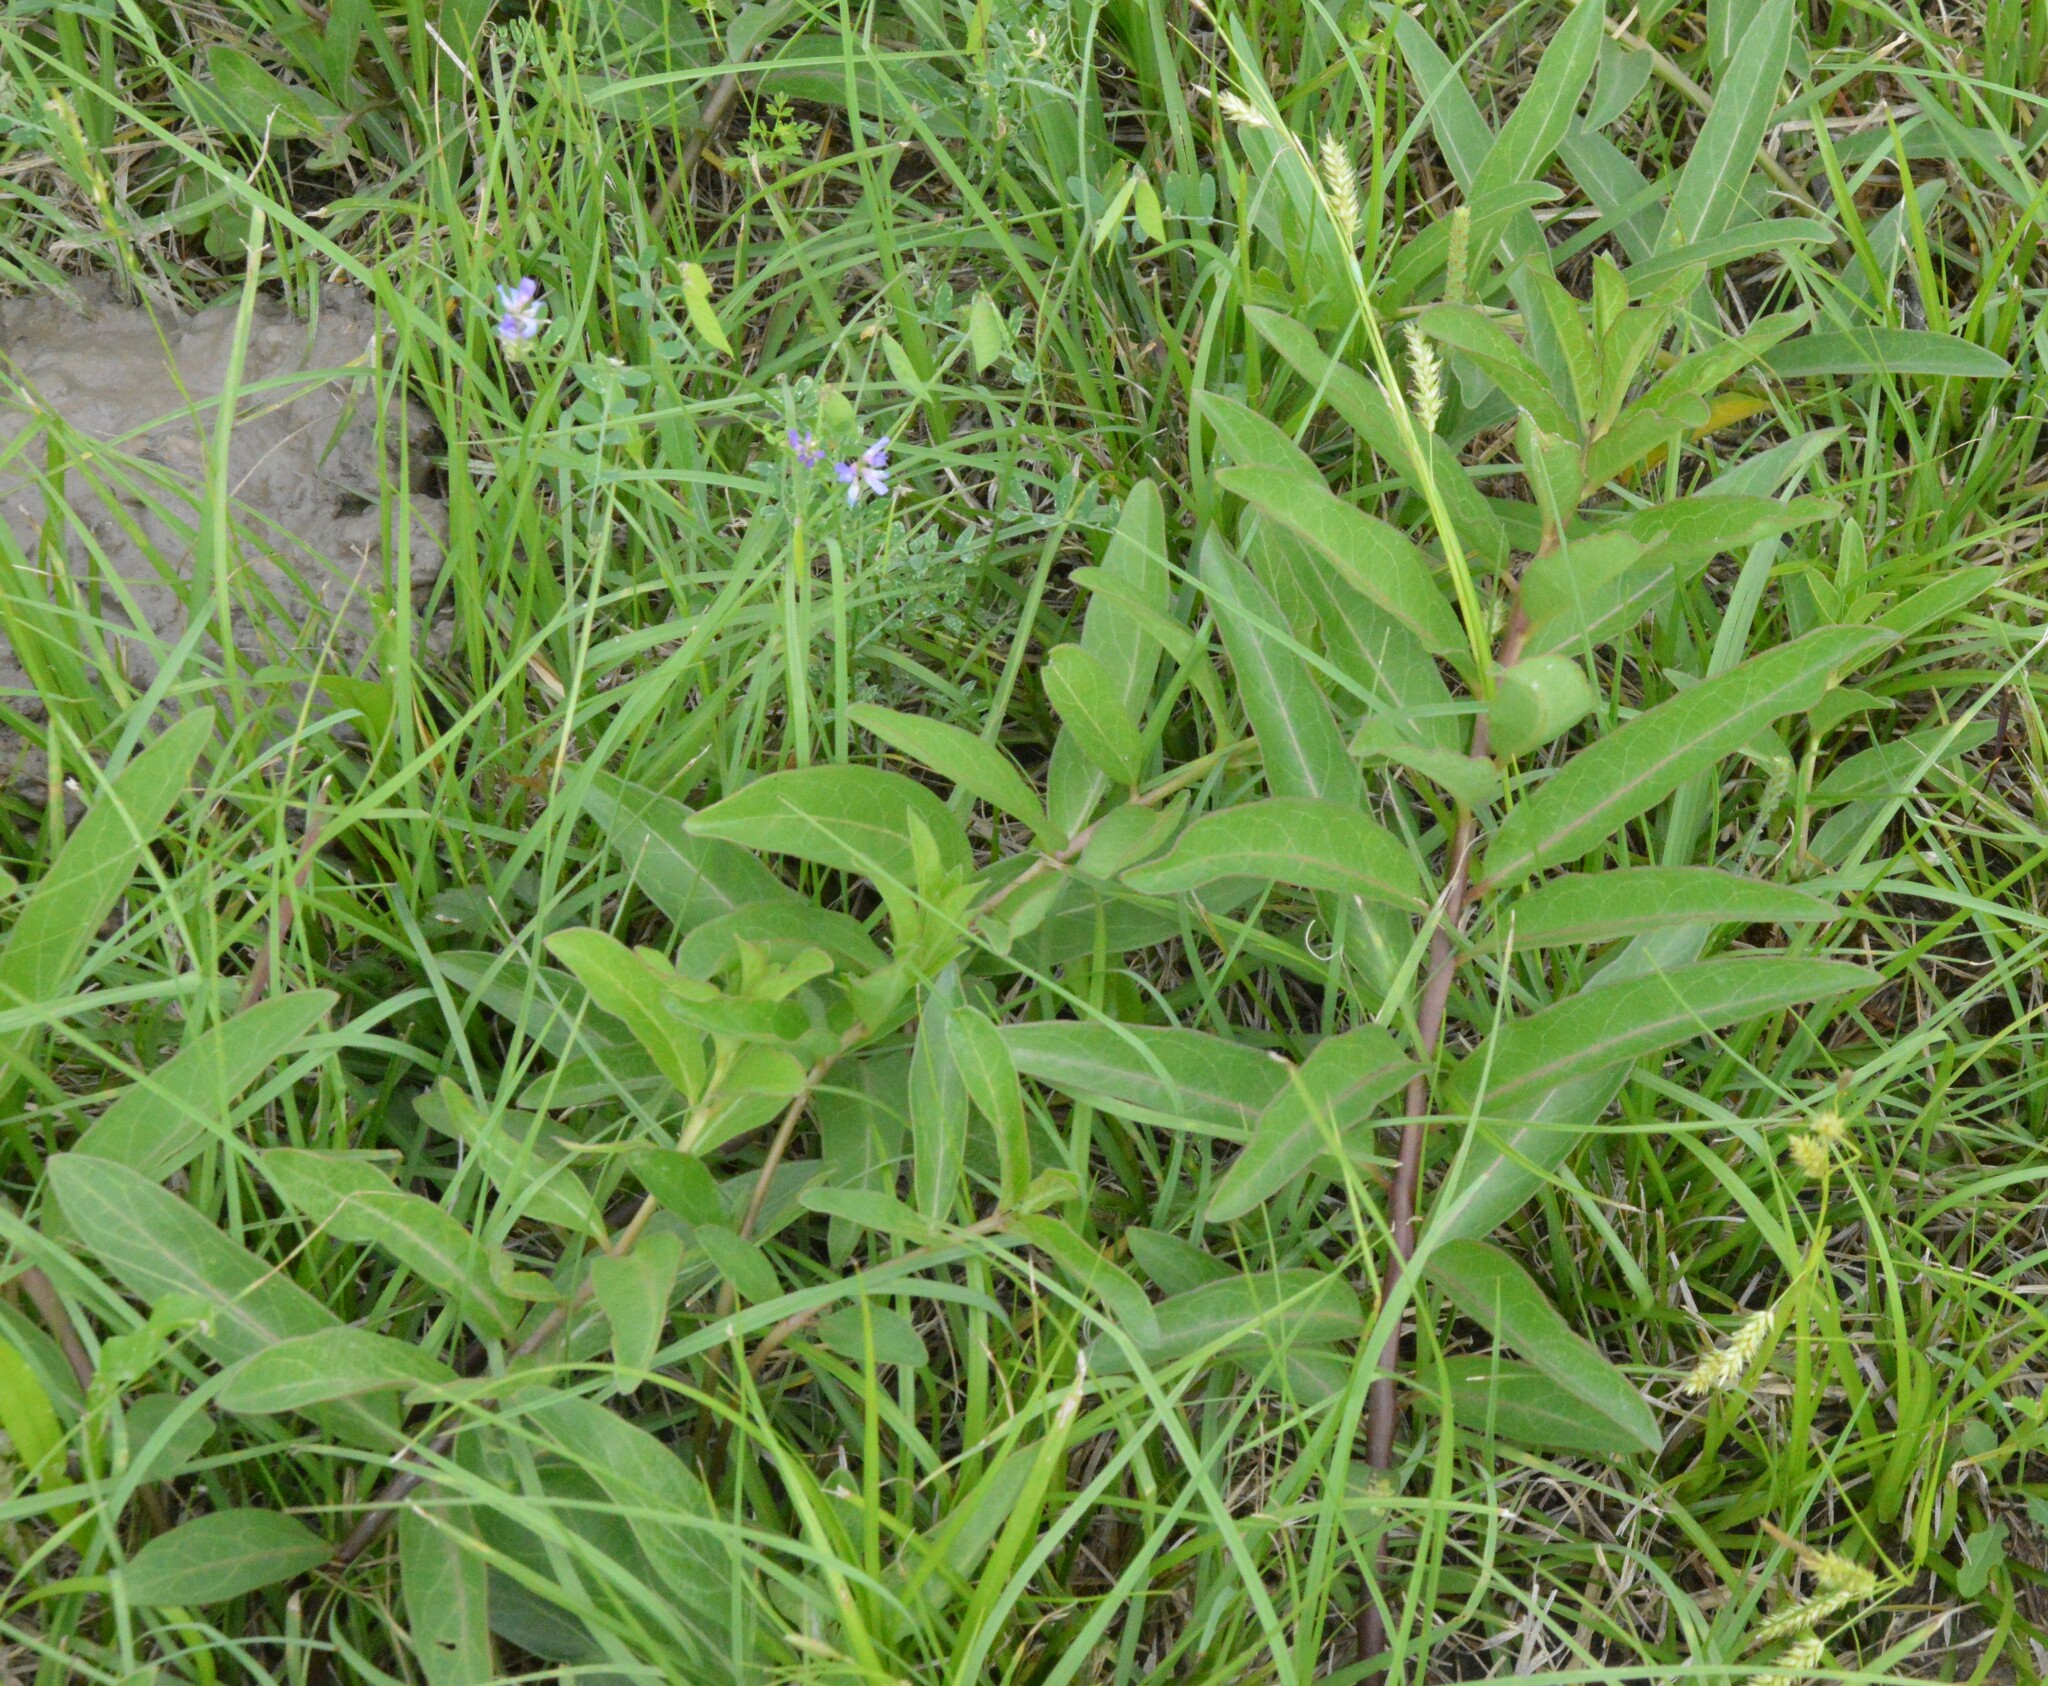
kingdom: Plantae
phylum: Tracheophyta
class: Magnoliopsida
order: Gentianales
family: Apocynaceae
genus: Asclepias
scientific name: Asclepias viridis
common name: Antelope-horns
